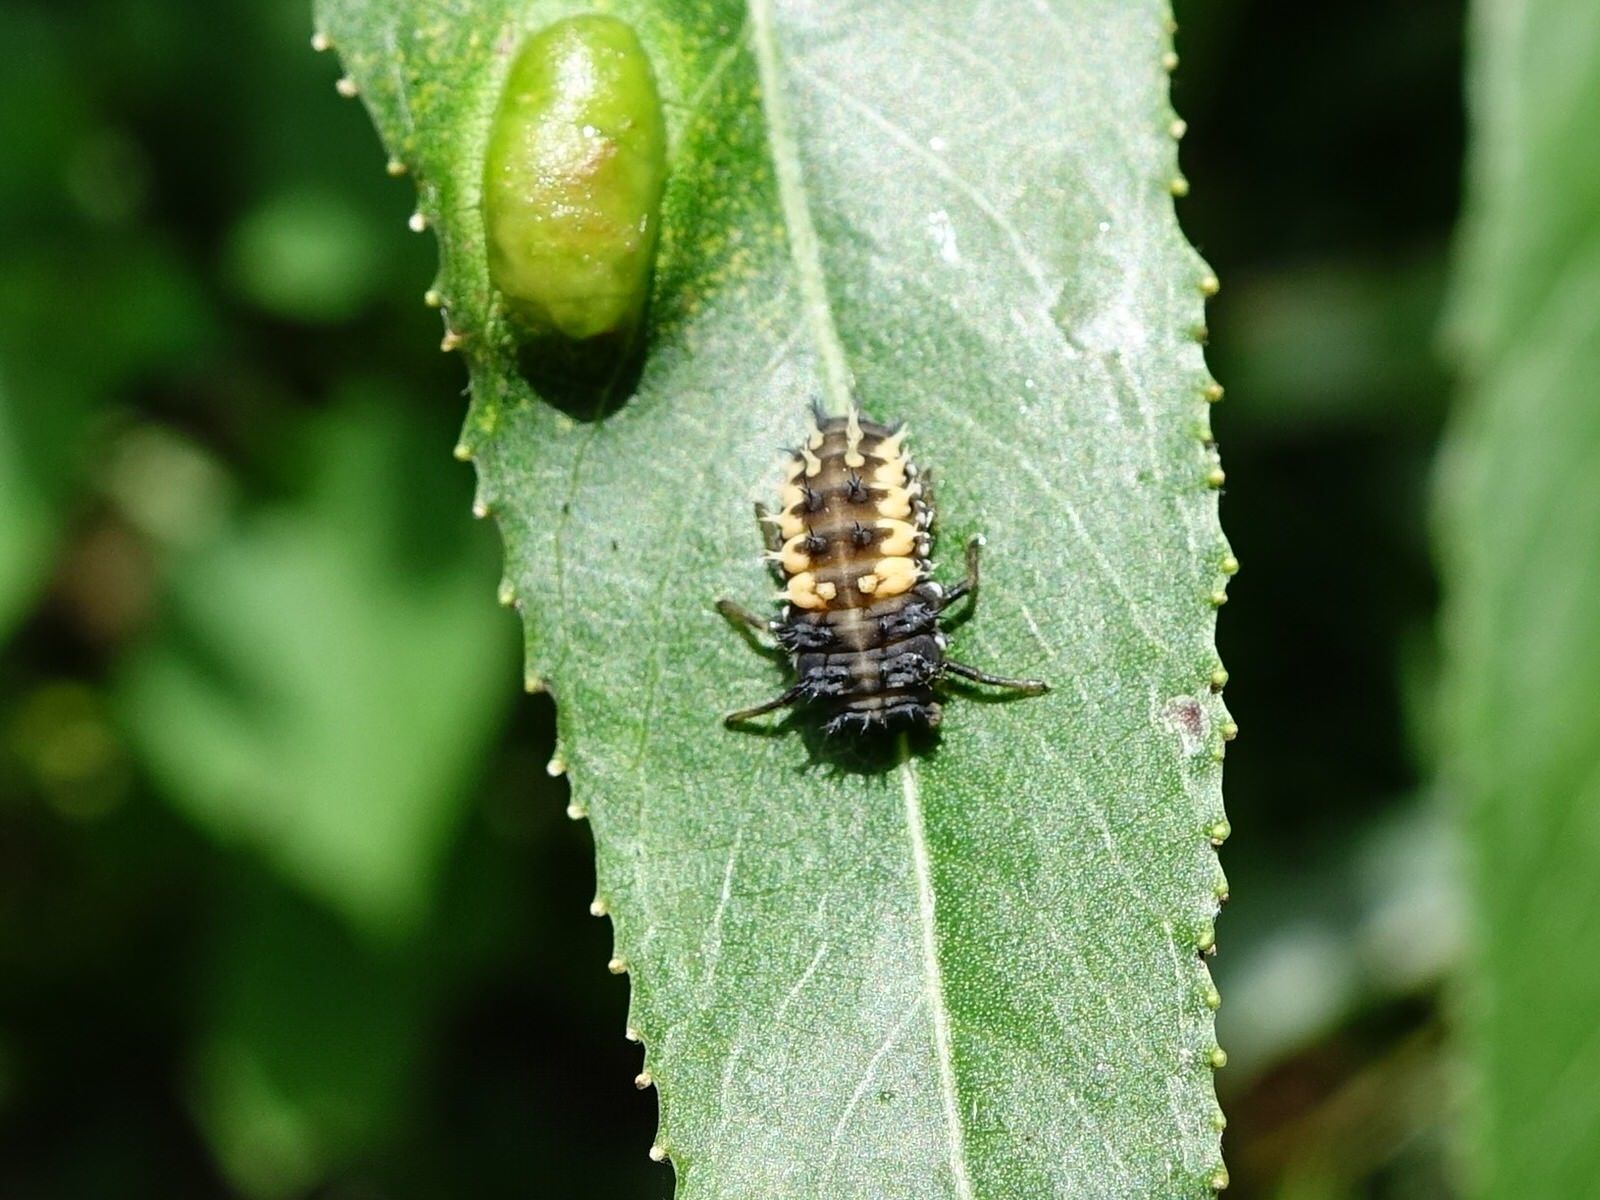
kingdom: Animalia
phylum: Arthropoda
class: Insecta
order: Coleoptera
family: Coccinellidae
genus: Harmonia
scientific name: Harmonia axyridis
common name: Harlequin ladybird
